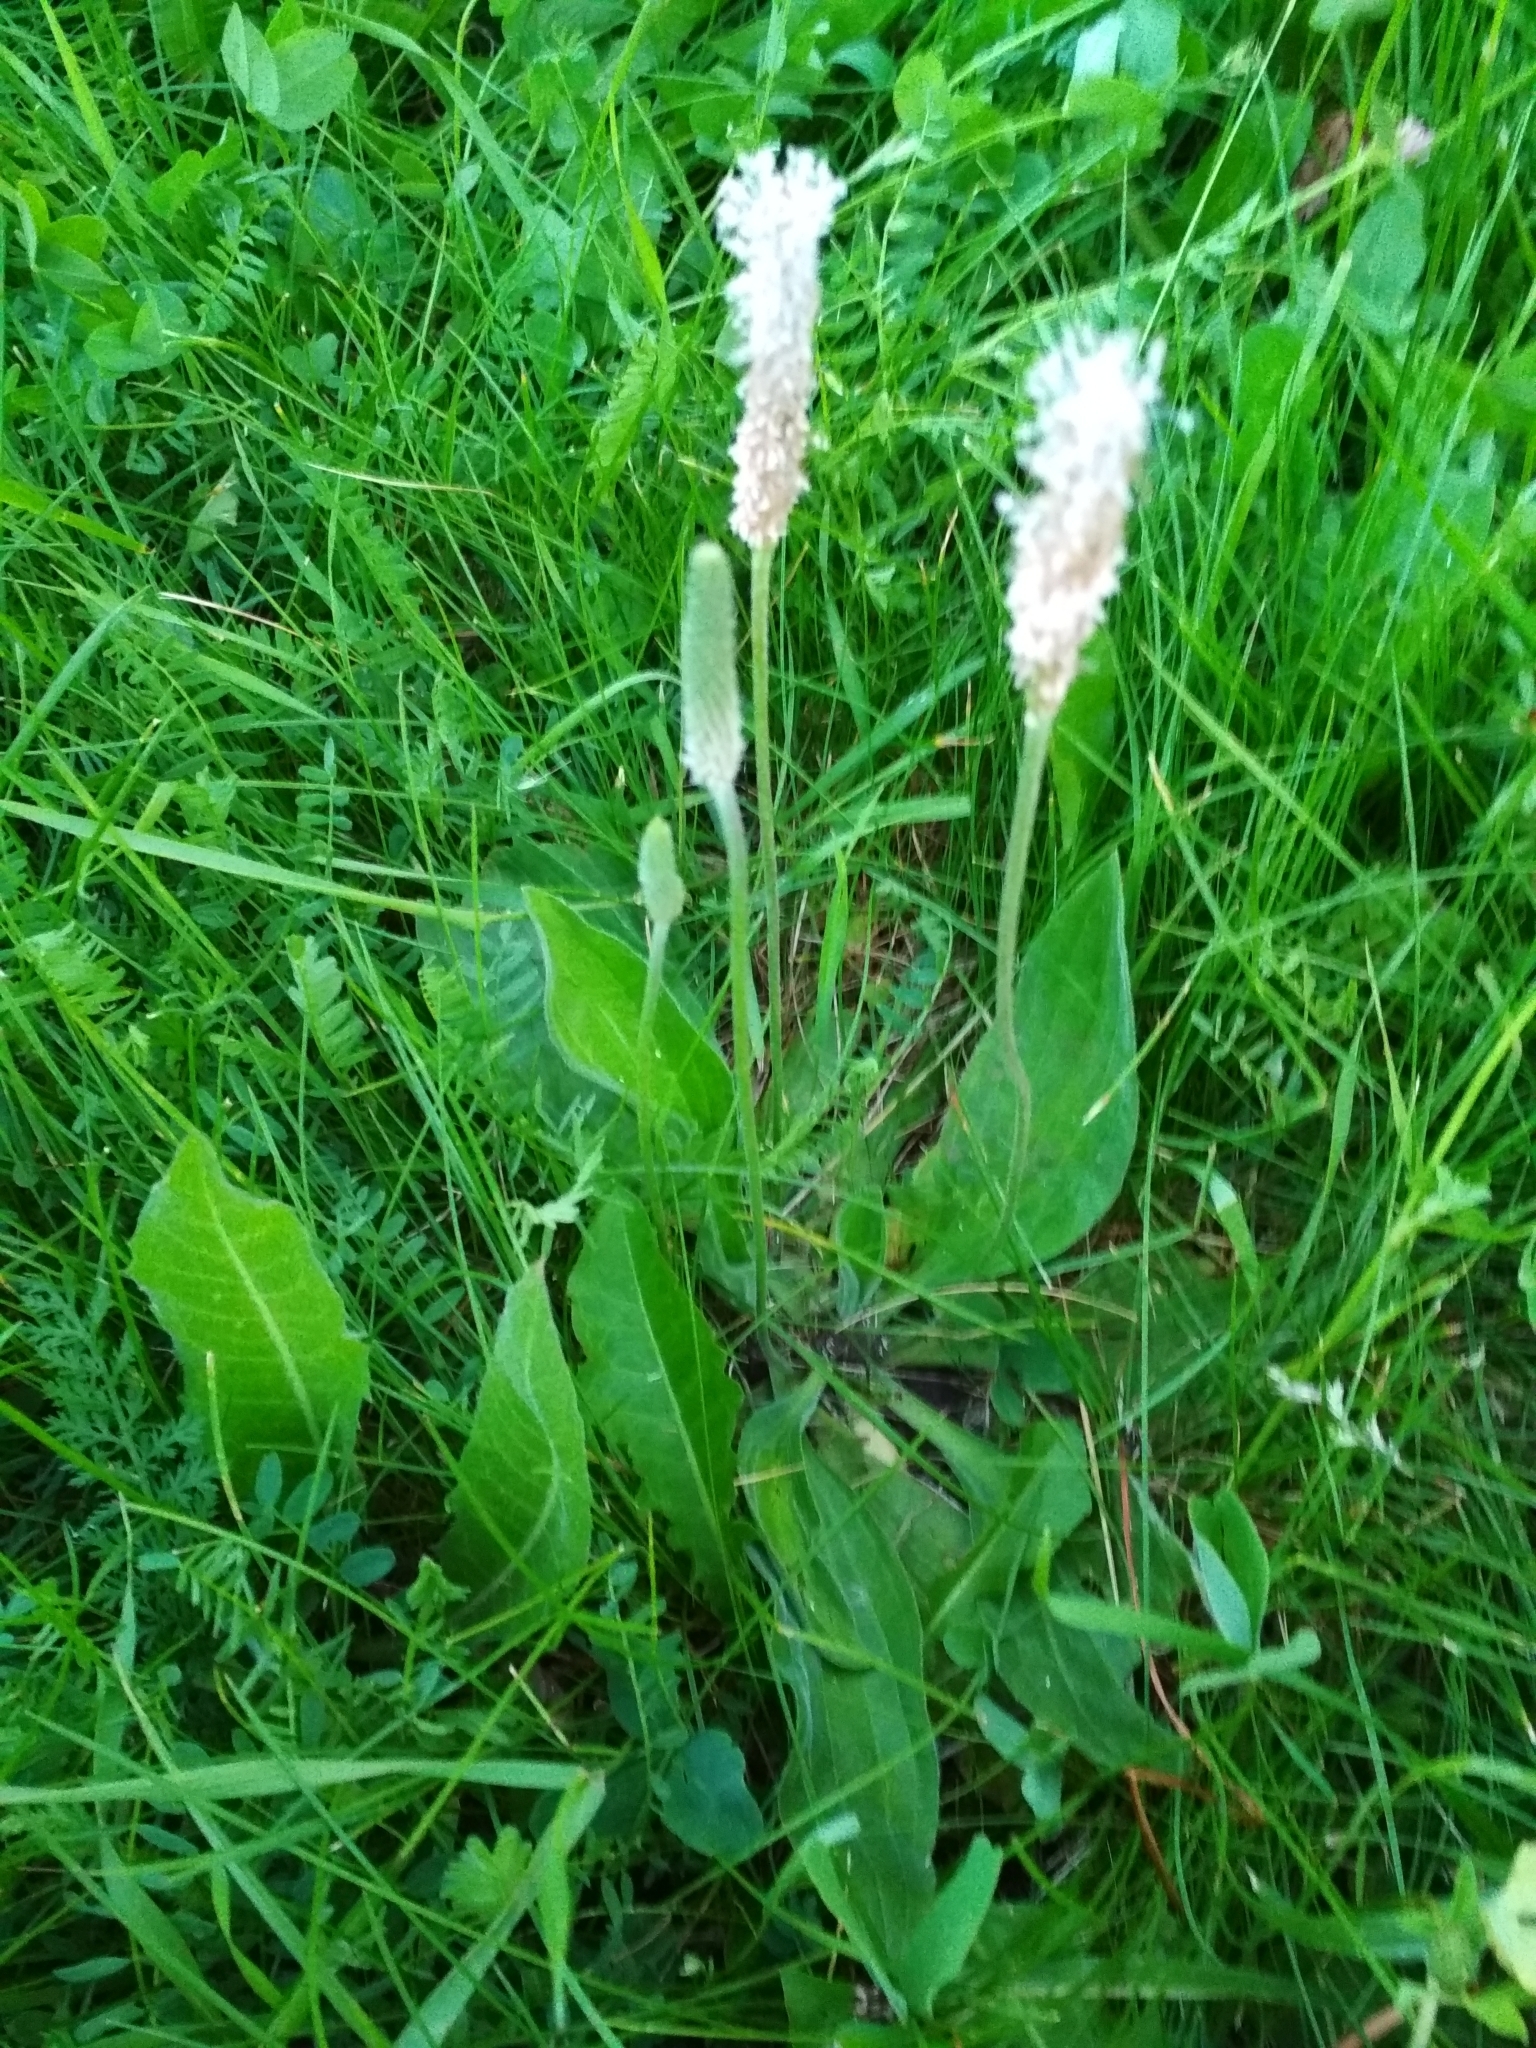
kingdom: Plantae
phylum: Tracheophyta
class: Magnoliopsida
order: Lamiales
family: Plantaginaceae
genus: Plantago
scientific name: Plantago media
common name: Hoary plantain
